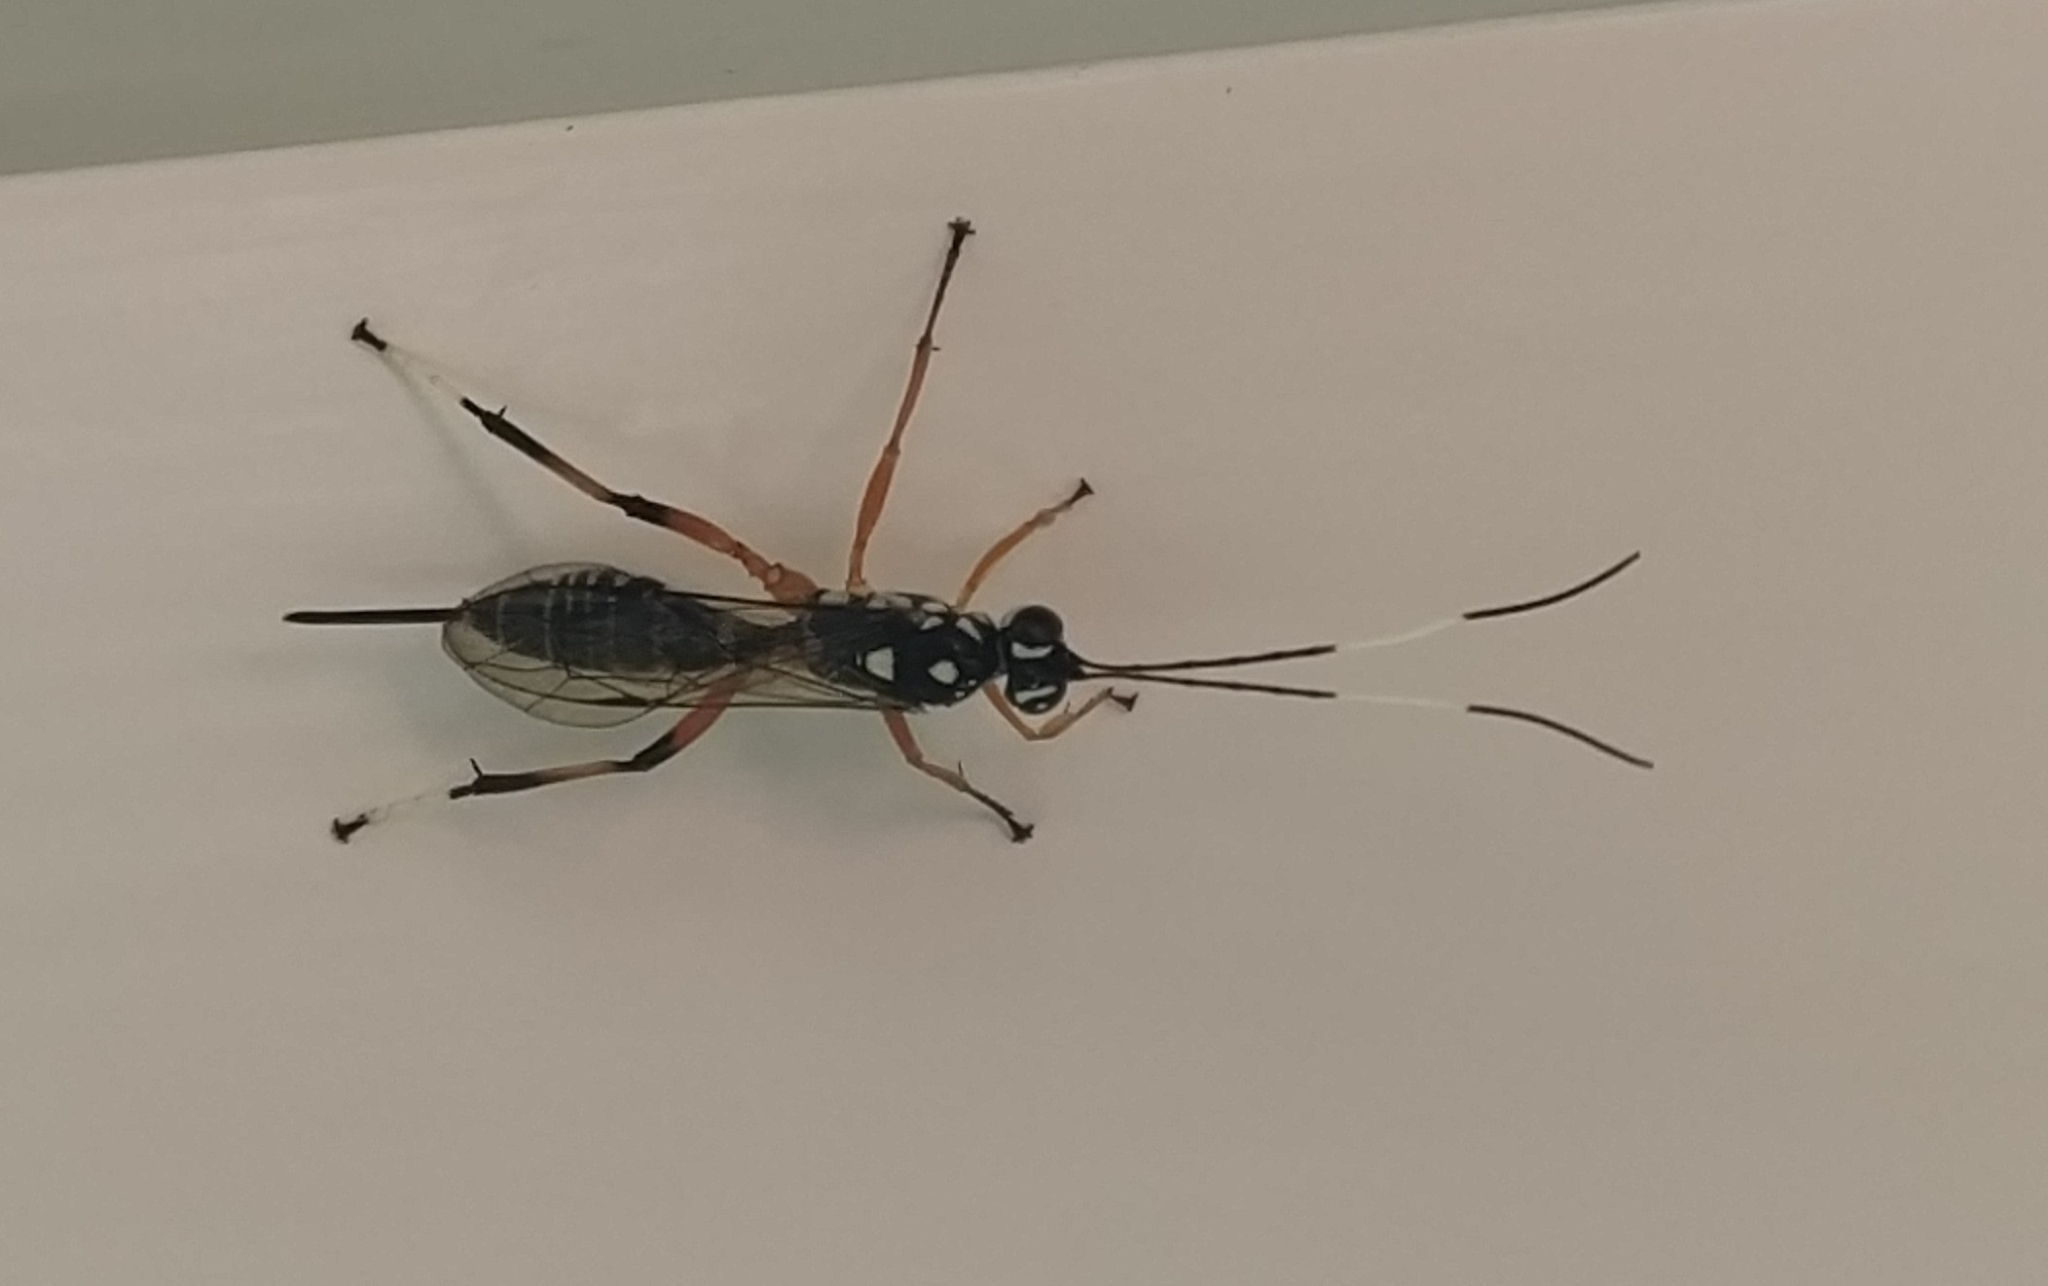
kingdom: Animalia
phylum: Arthropoda
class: Insecta
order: Hymenoptera
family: Ichneumonidae
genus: Xanthocryptus
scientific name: Xanthocryptus novozealandicus
